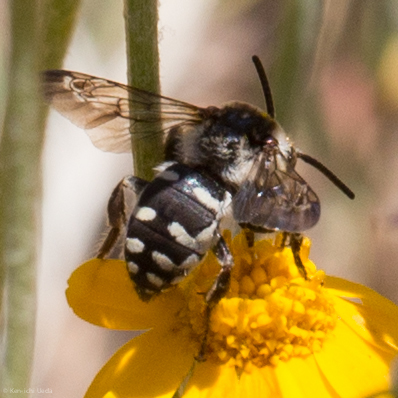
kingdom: Animalia
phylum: Arthropoda
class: Insecta
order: Hymenoptera
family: Apidae
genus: Brachymelecta
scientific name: Brachymelecta californica
